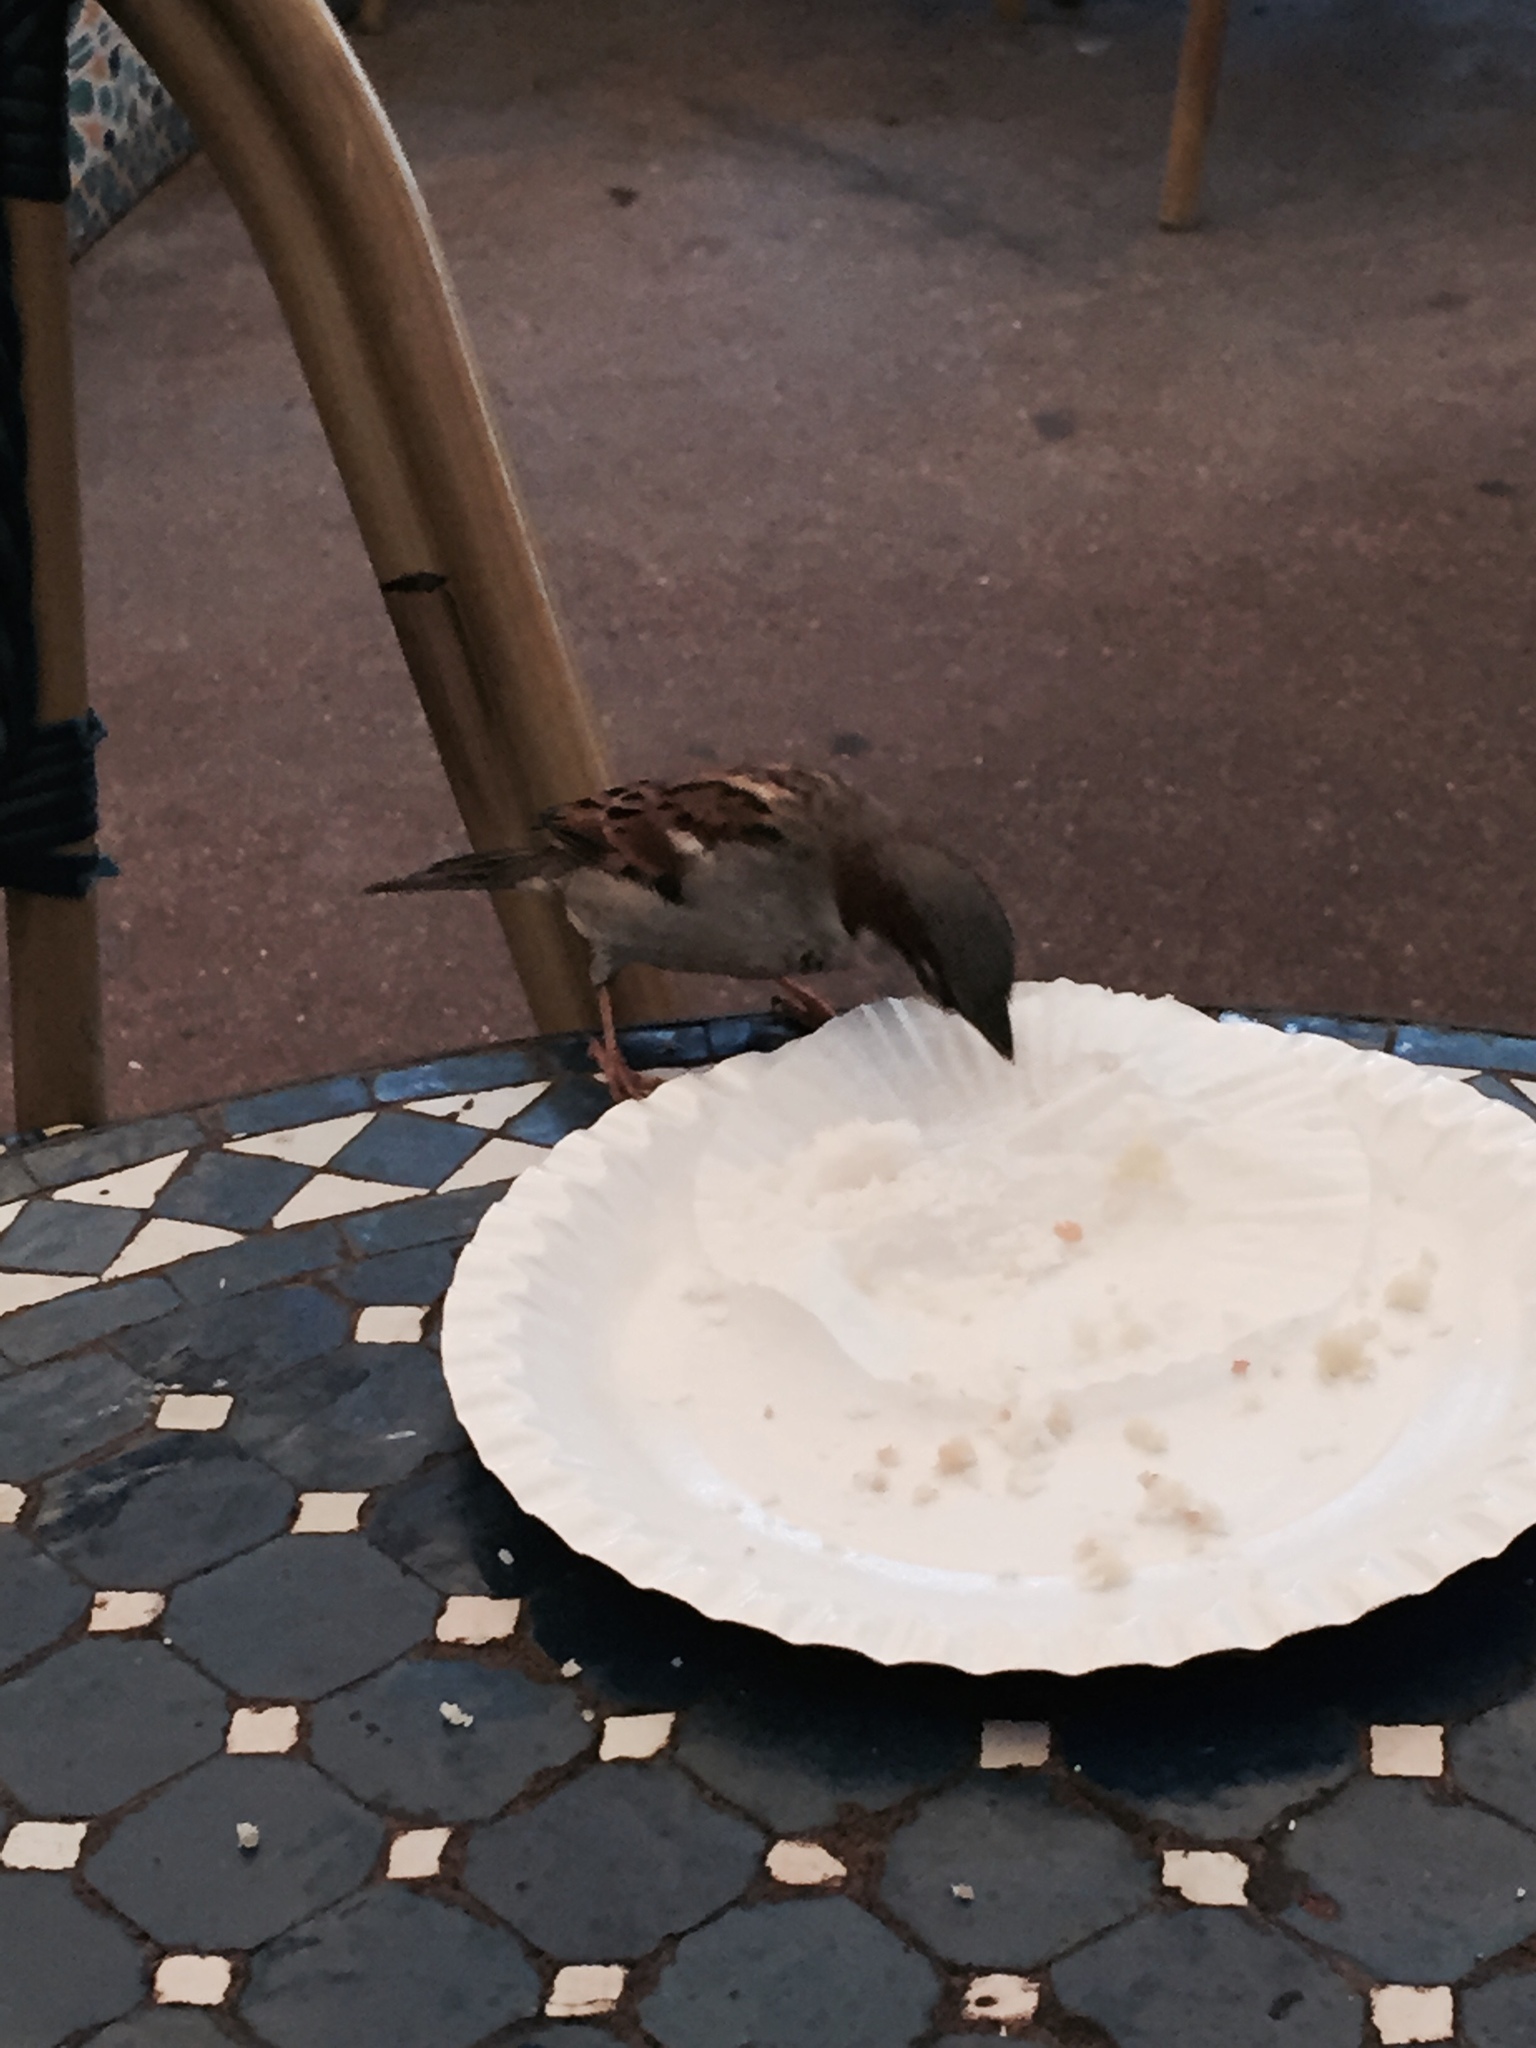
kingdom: Animalia
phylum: Chordata
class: Aves
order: Passeriformes
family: Passeridae
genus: Passer
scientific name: Passer domesticus
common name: House sparrow
